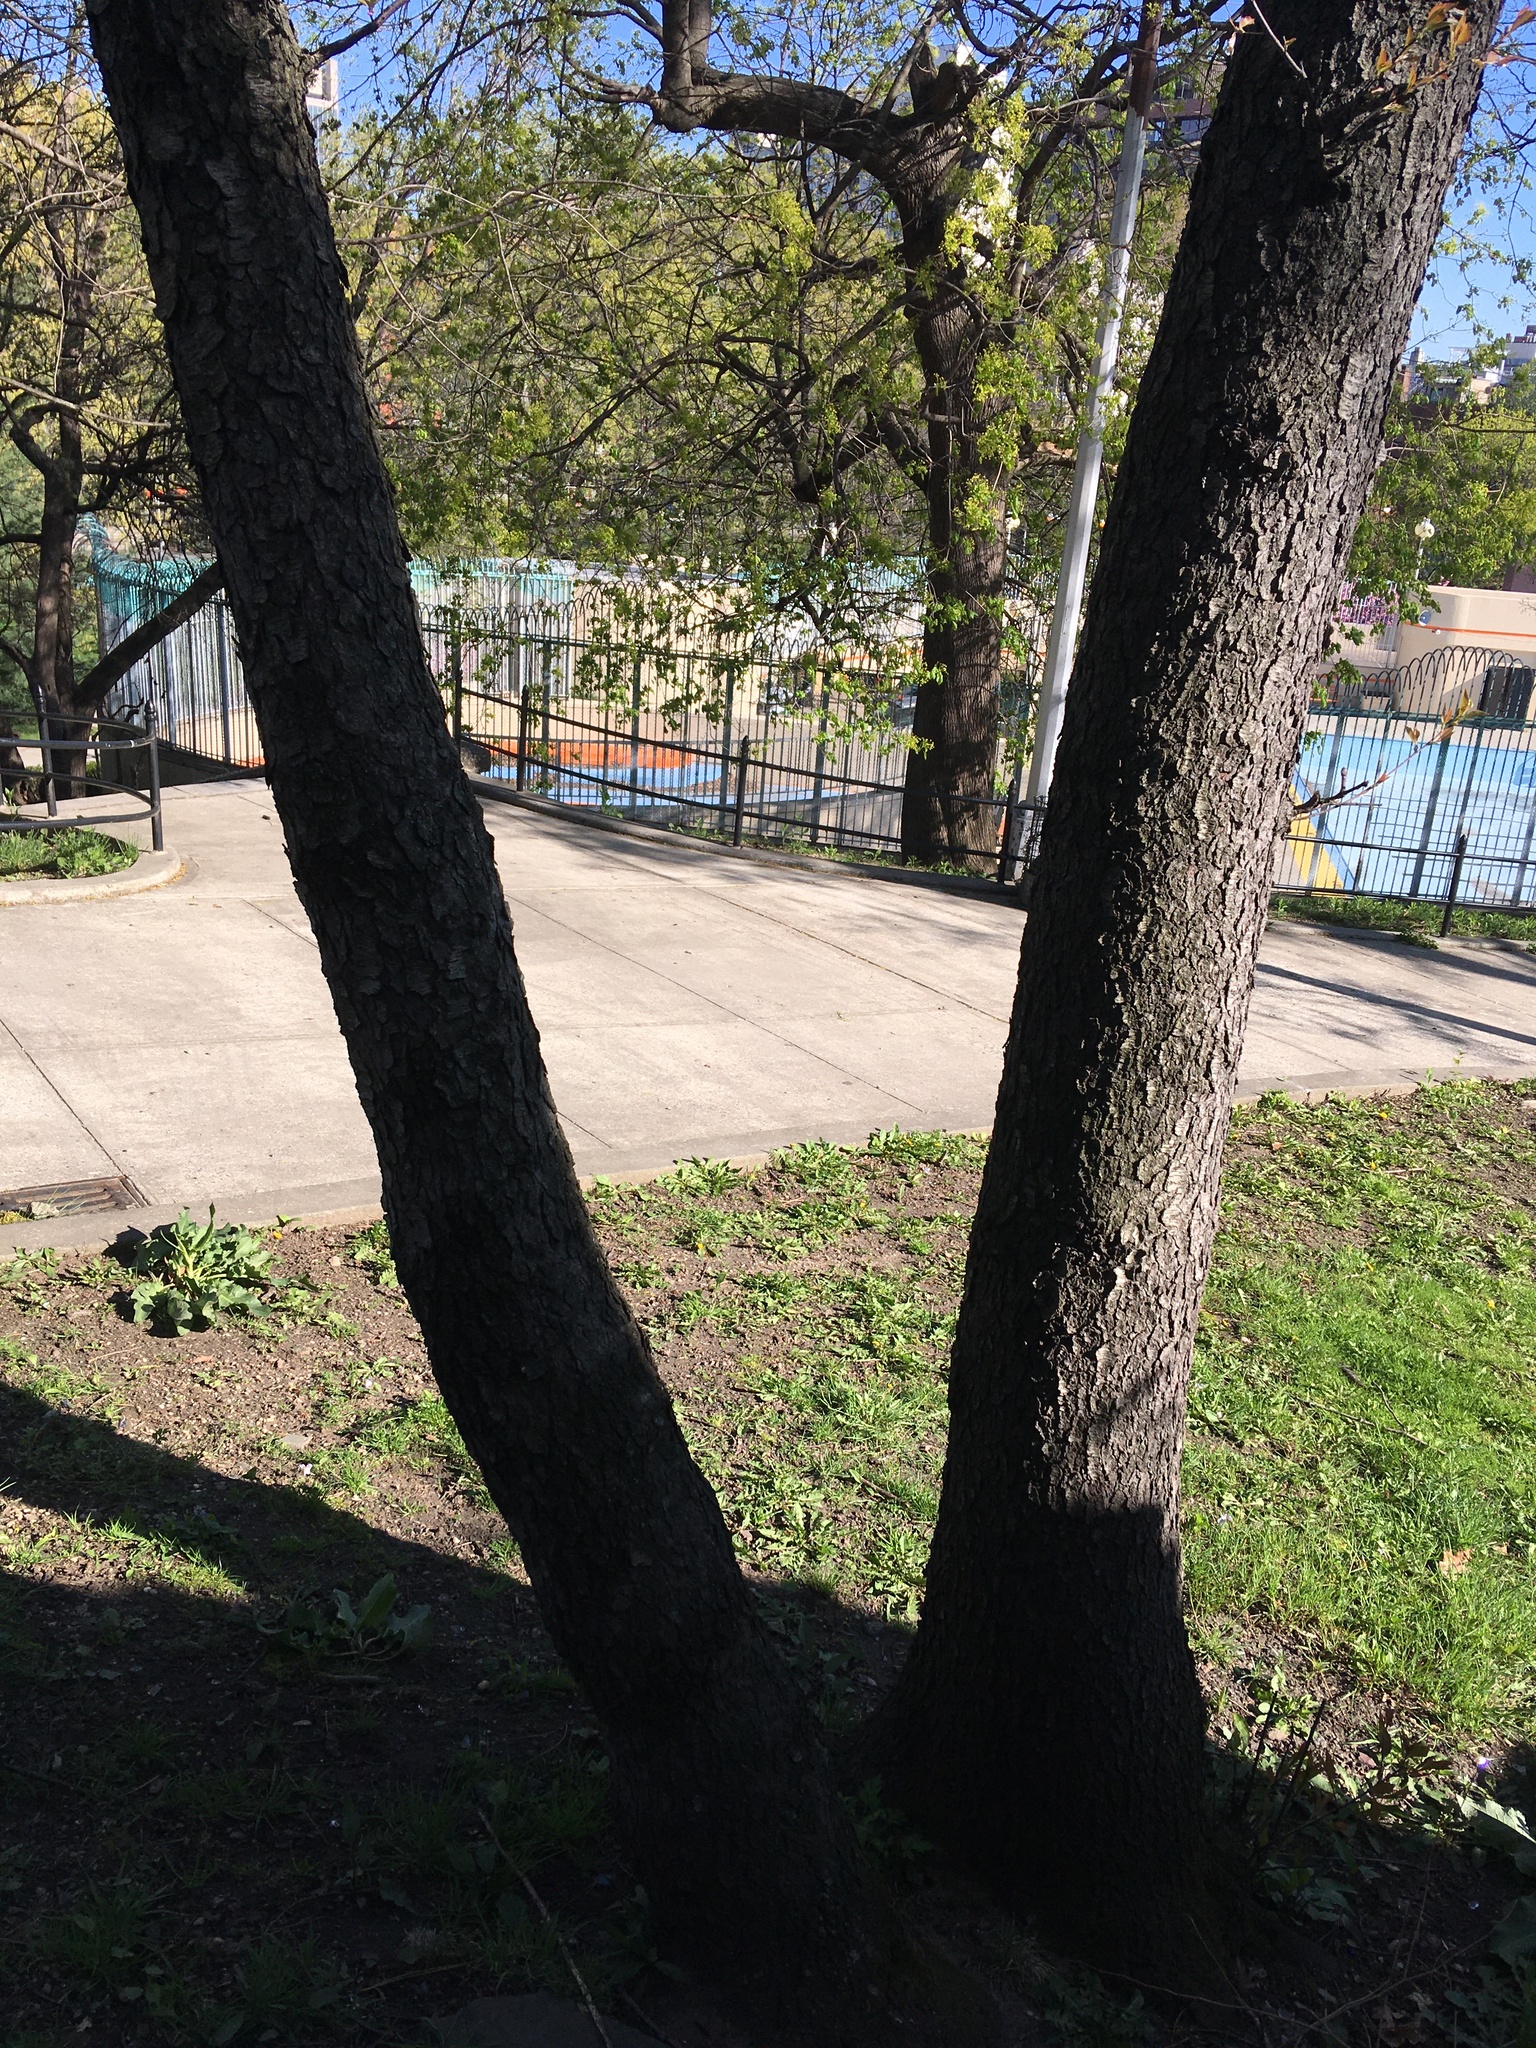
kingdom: Plantae
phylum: Tracheophyta
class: Magnoliopsida
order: Rosales
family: Rosaceae
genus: Prunus
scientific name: Prunus serotina
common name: Black cherry
